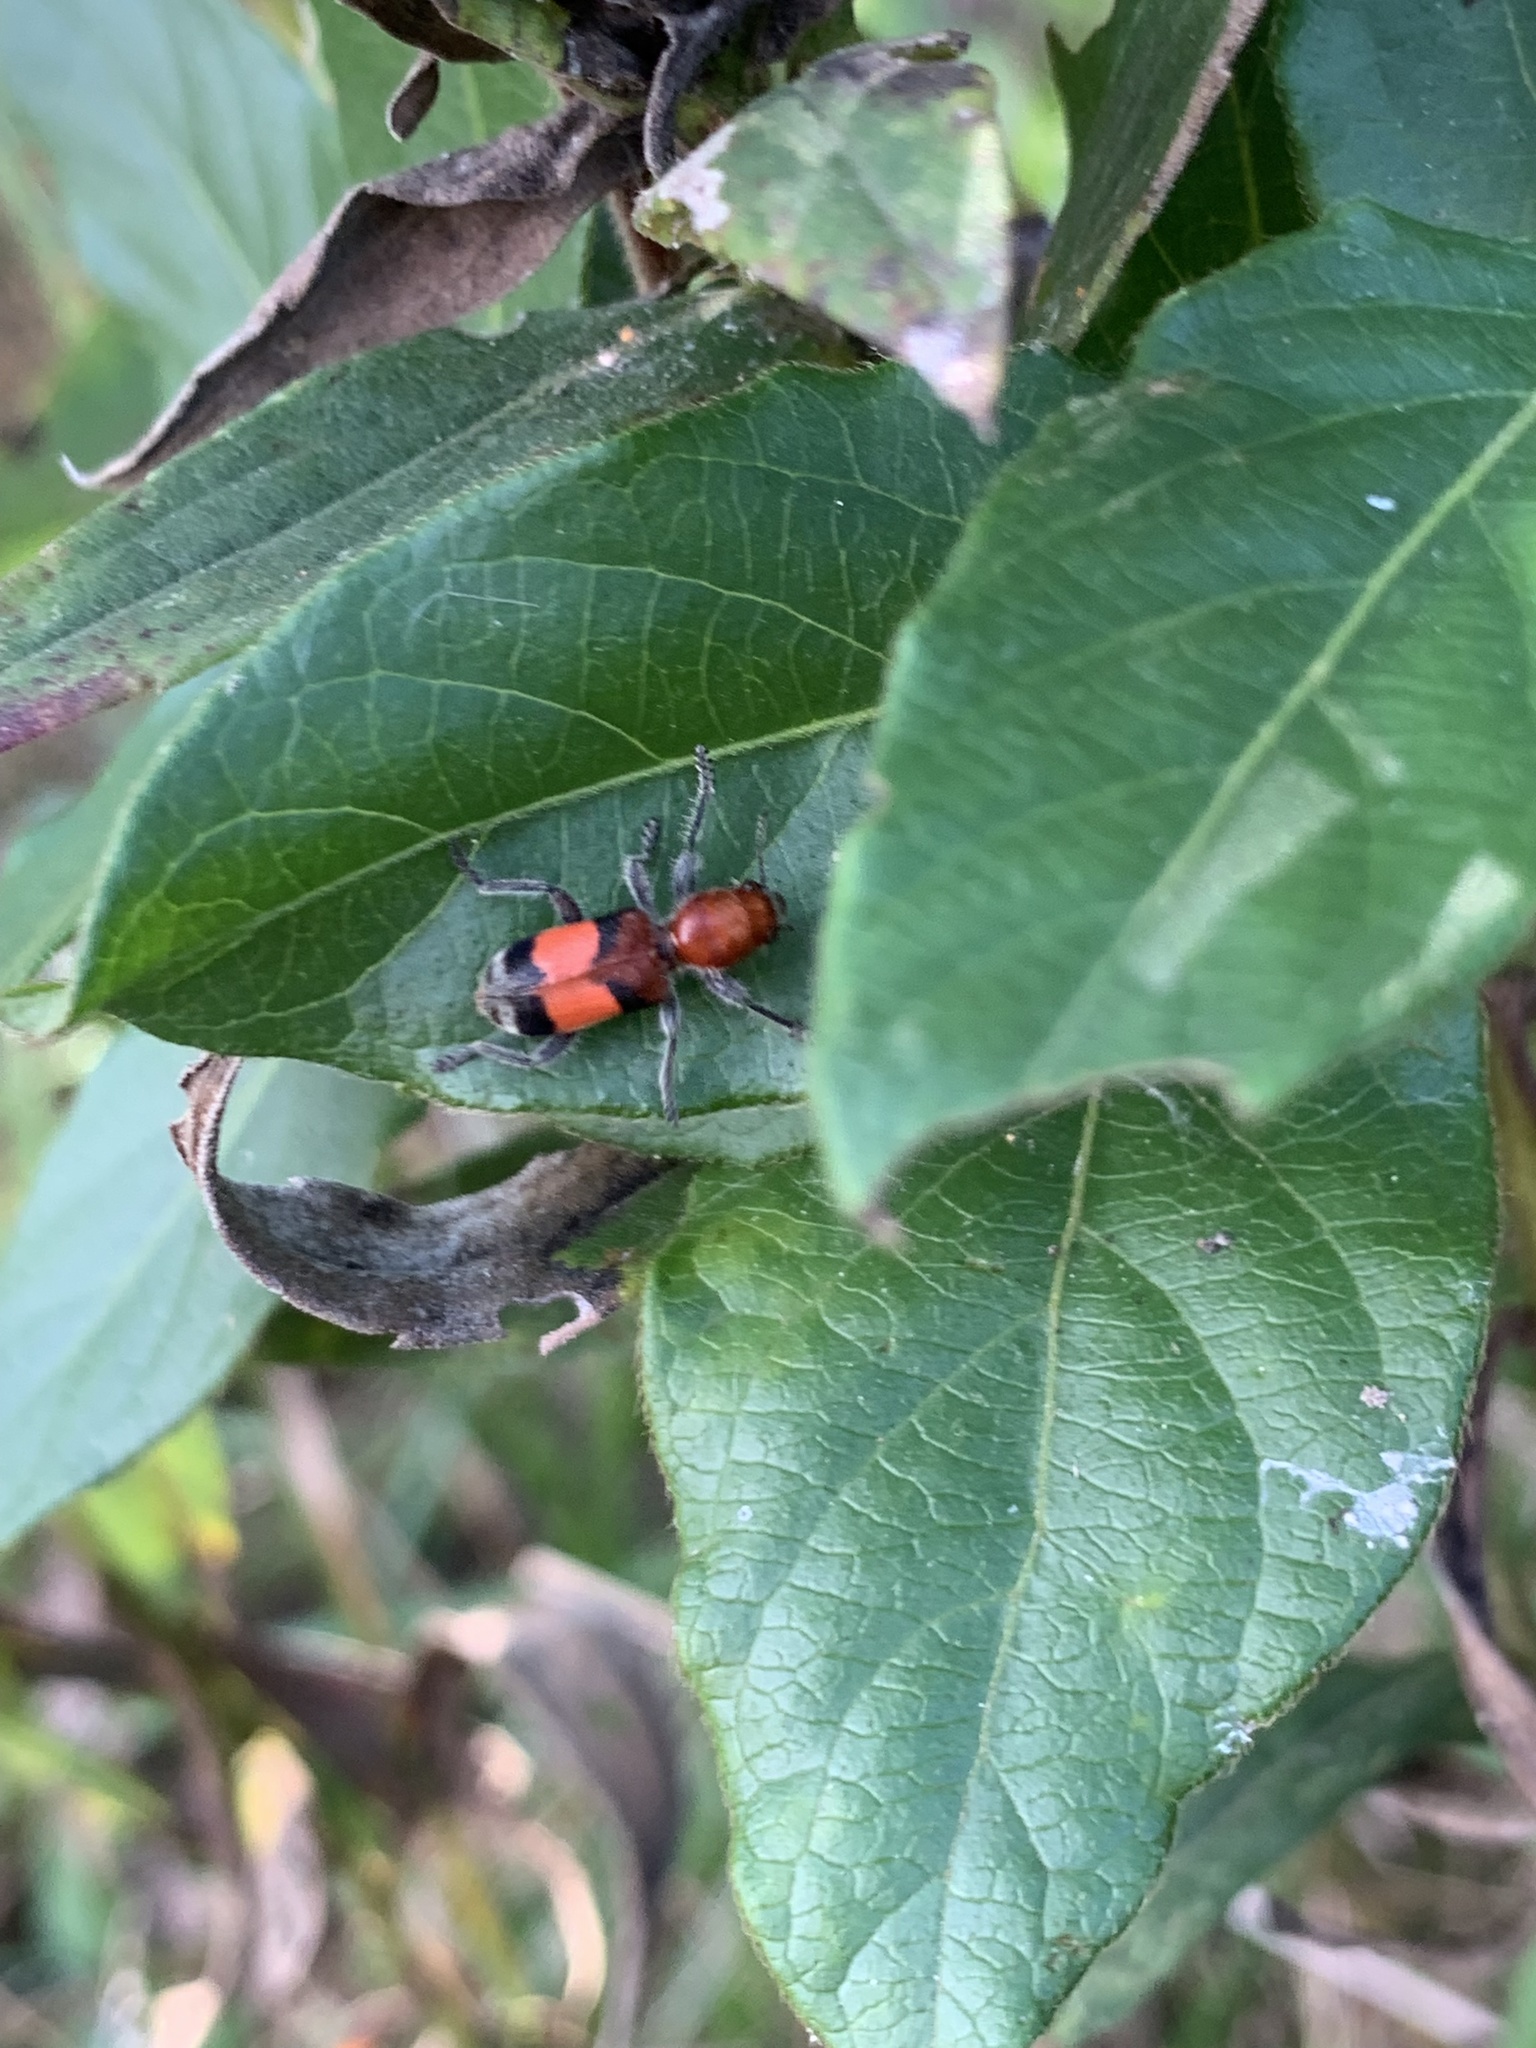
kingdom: Animalia
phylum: Arthropoda
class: Insecta
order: Coleoptera
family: Cleridae
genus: Enoclerus
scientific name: Enoclerus ichneumoneus
